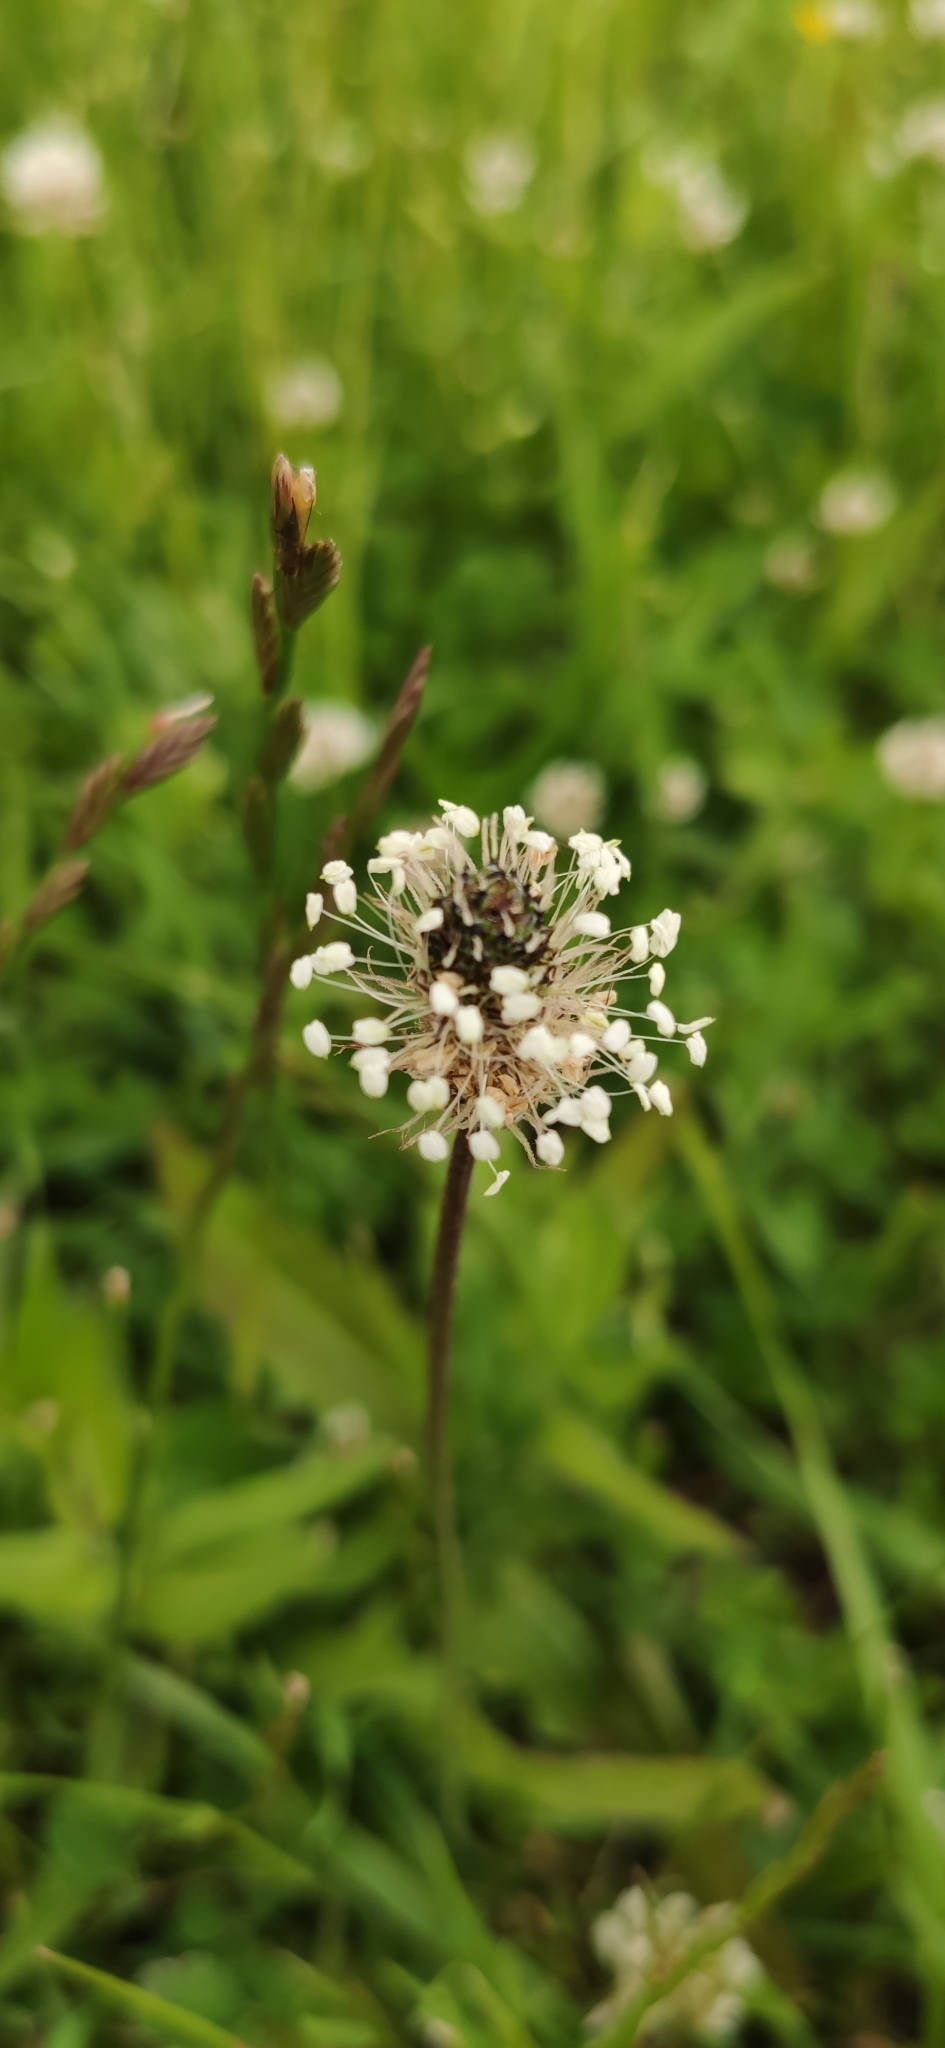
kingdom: Plantae
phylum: Tracheophyta
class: Magnoliopsida
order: Lamiales
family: Plantaginaceae
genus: Plantago
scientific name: Plantago lanceolata
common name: Ribwort plantain
